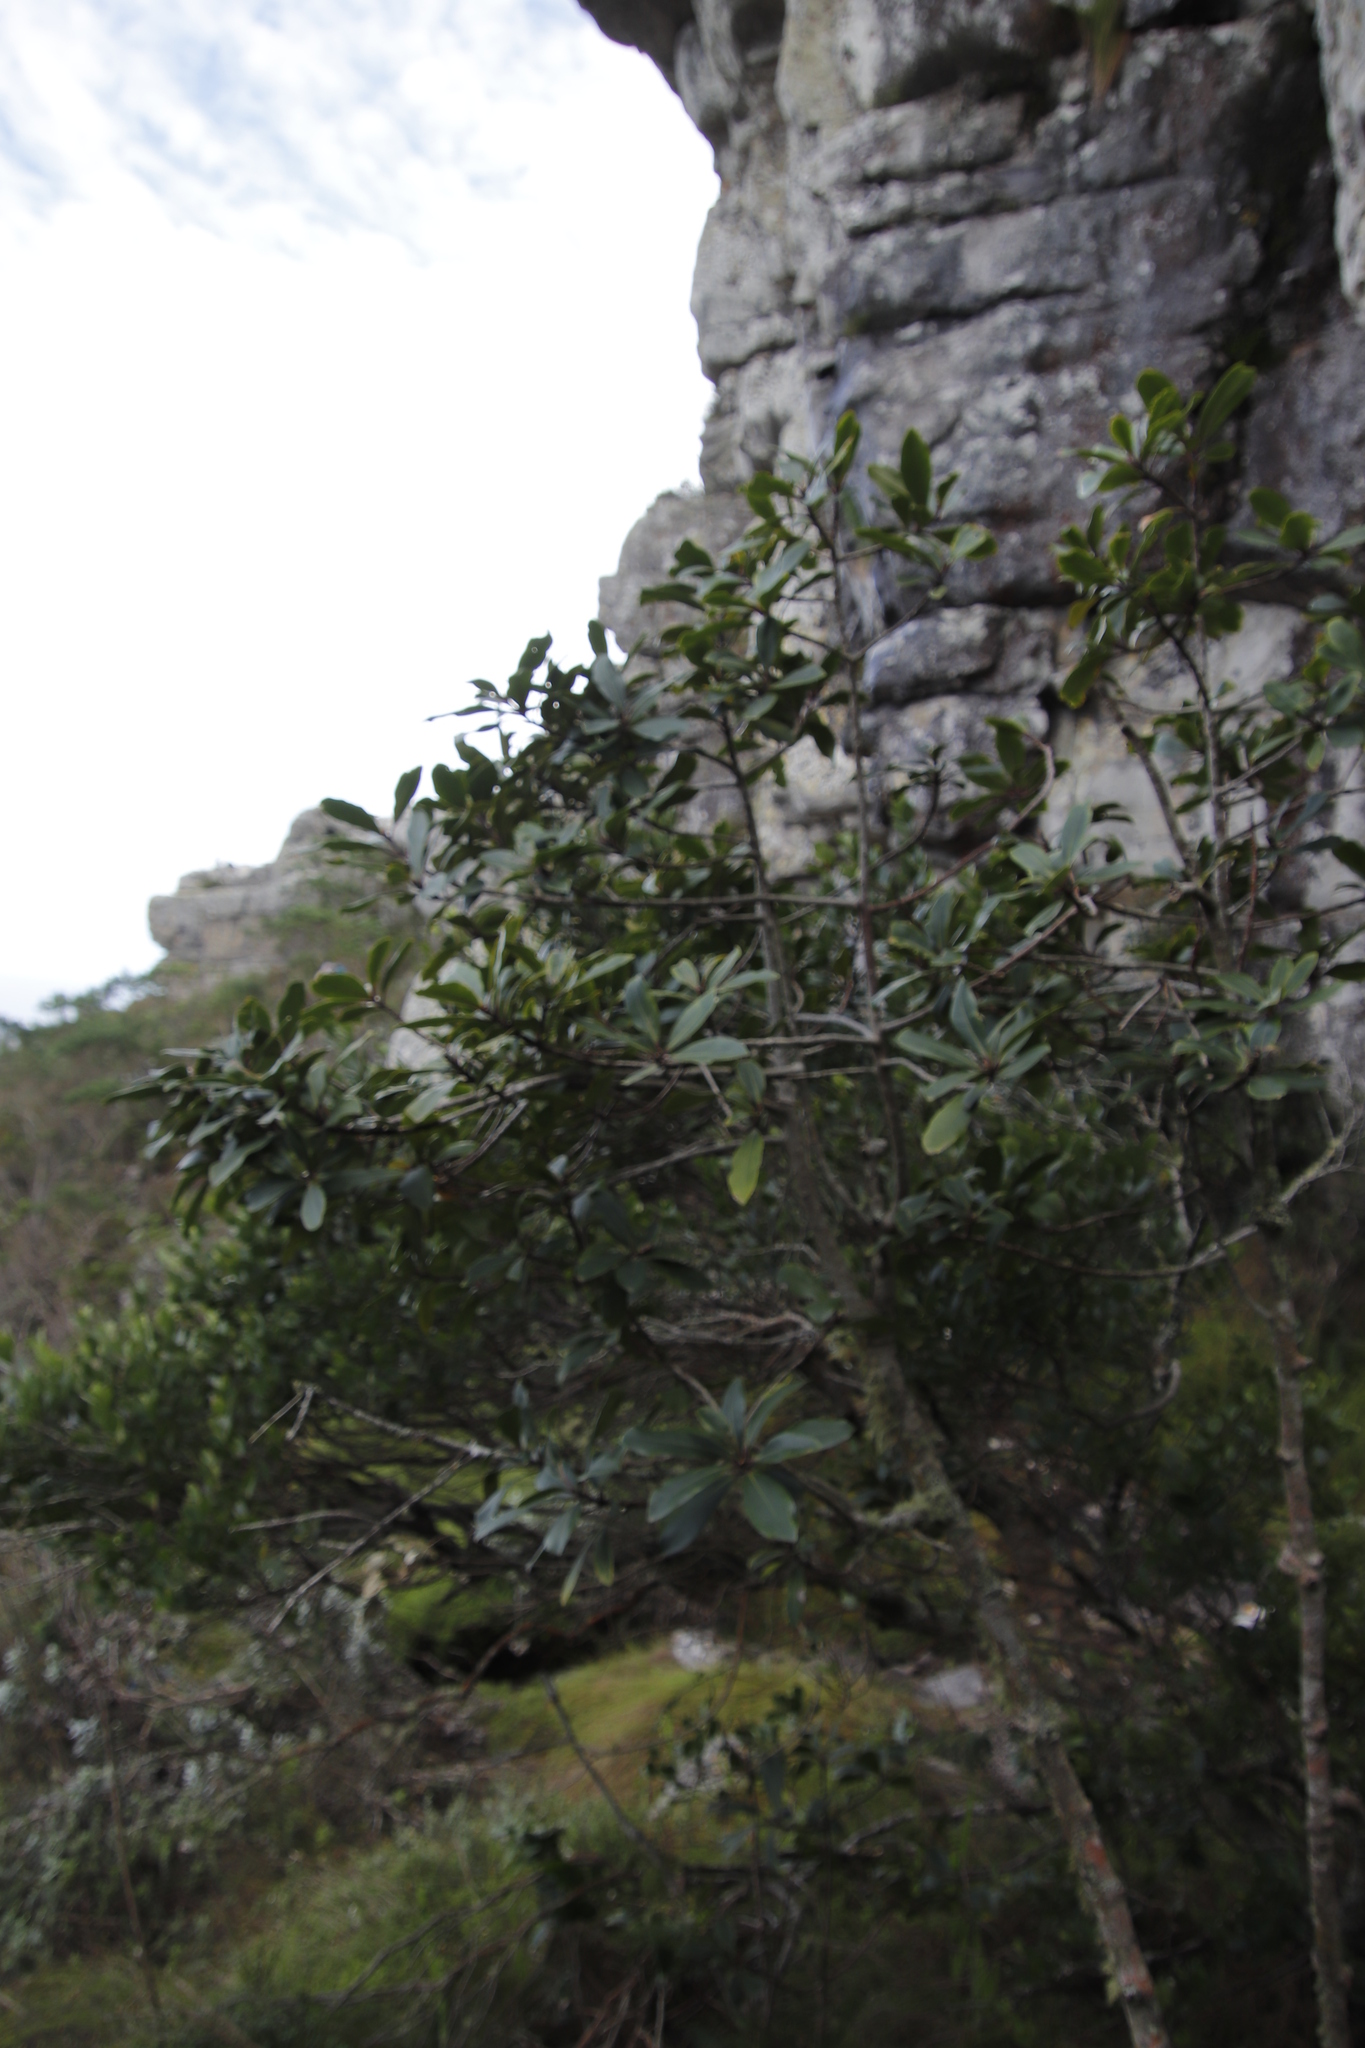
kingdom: Plantae
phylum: Tracheophyta
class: Magnoliopsida
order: Celastrales
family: Celastraceae
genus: Maurocenia
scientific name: Maurocenia frangula
